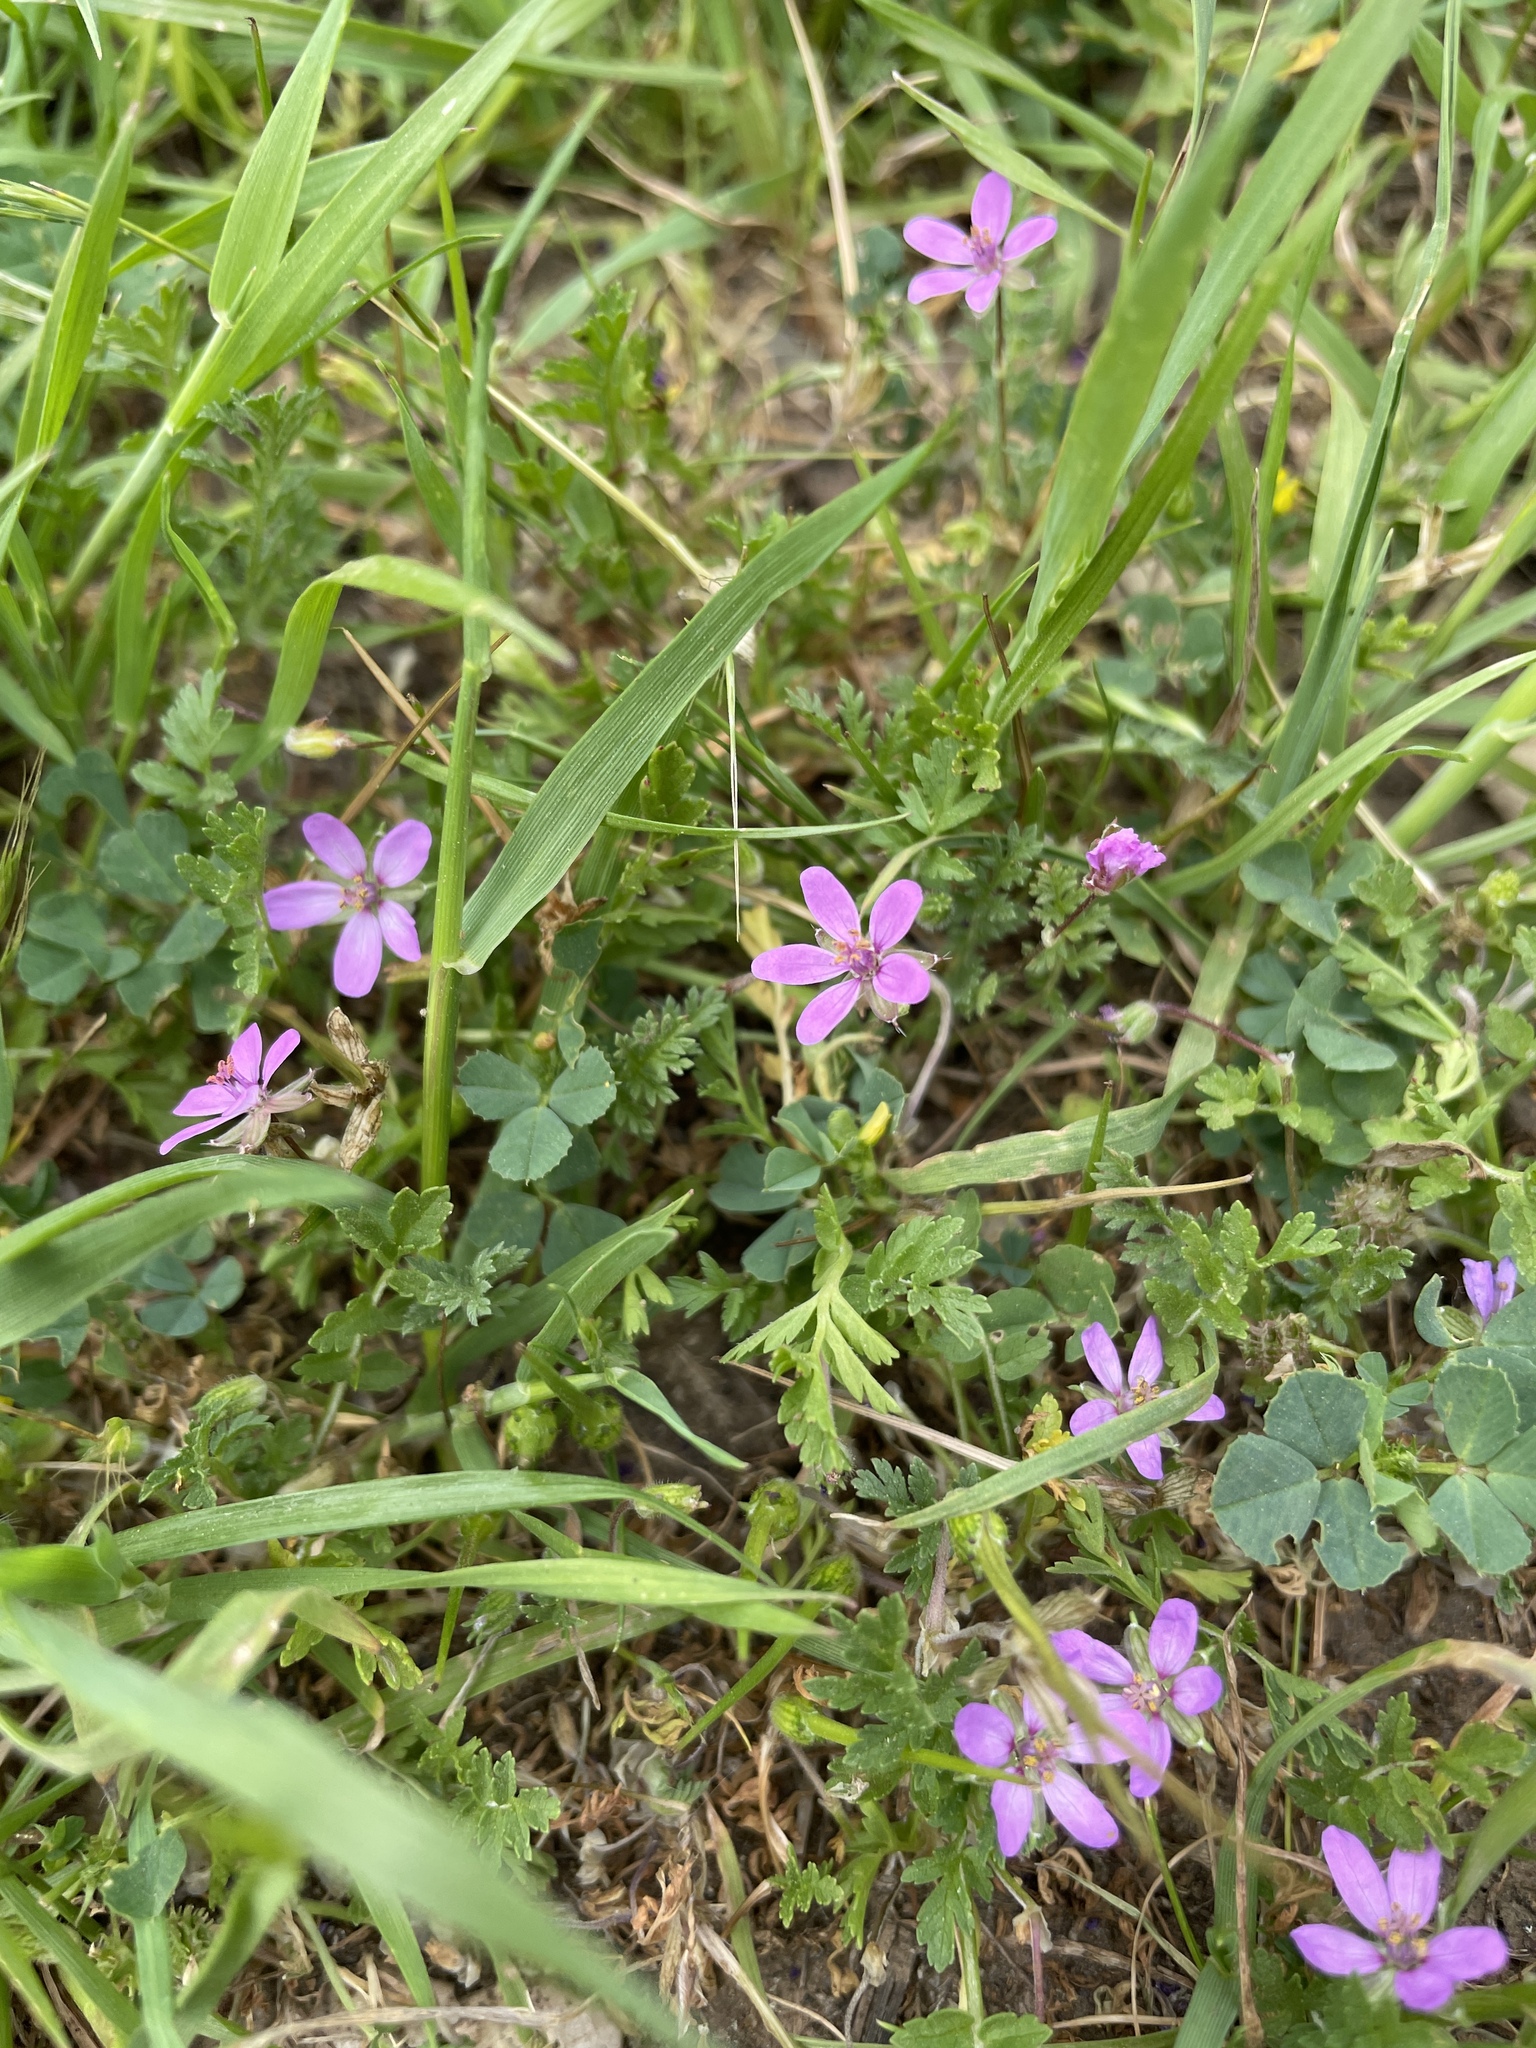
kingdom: Plantae
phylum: Tracheophyta
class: Magnoliopsida
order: Geraniales
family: Geraniaceae
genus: Erodium
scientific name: Erodium cicutarium
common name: Common stork's-bill
